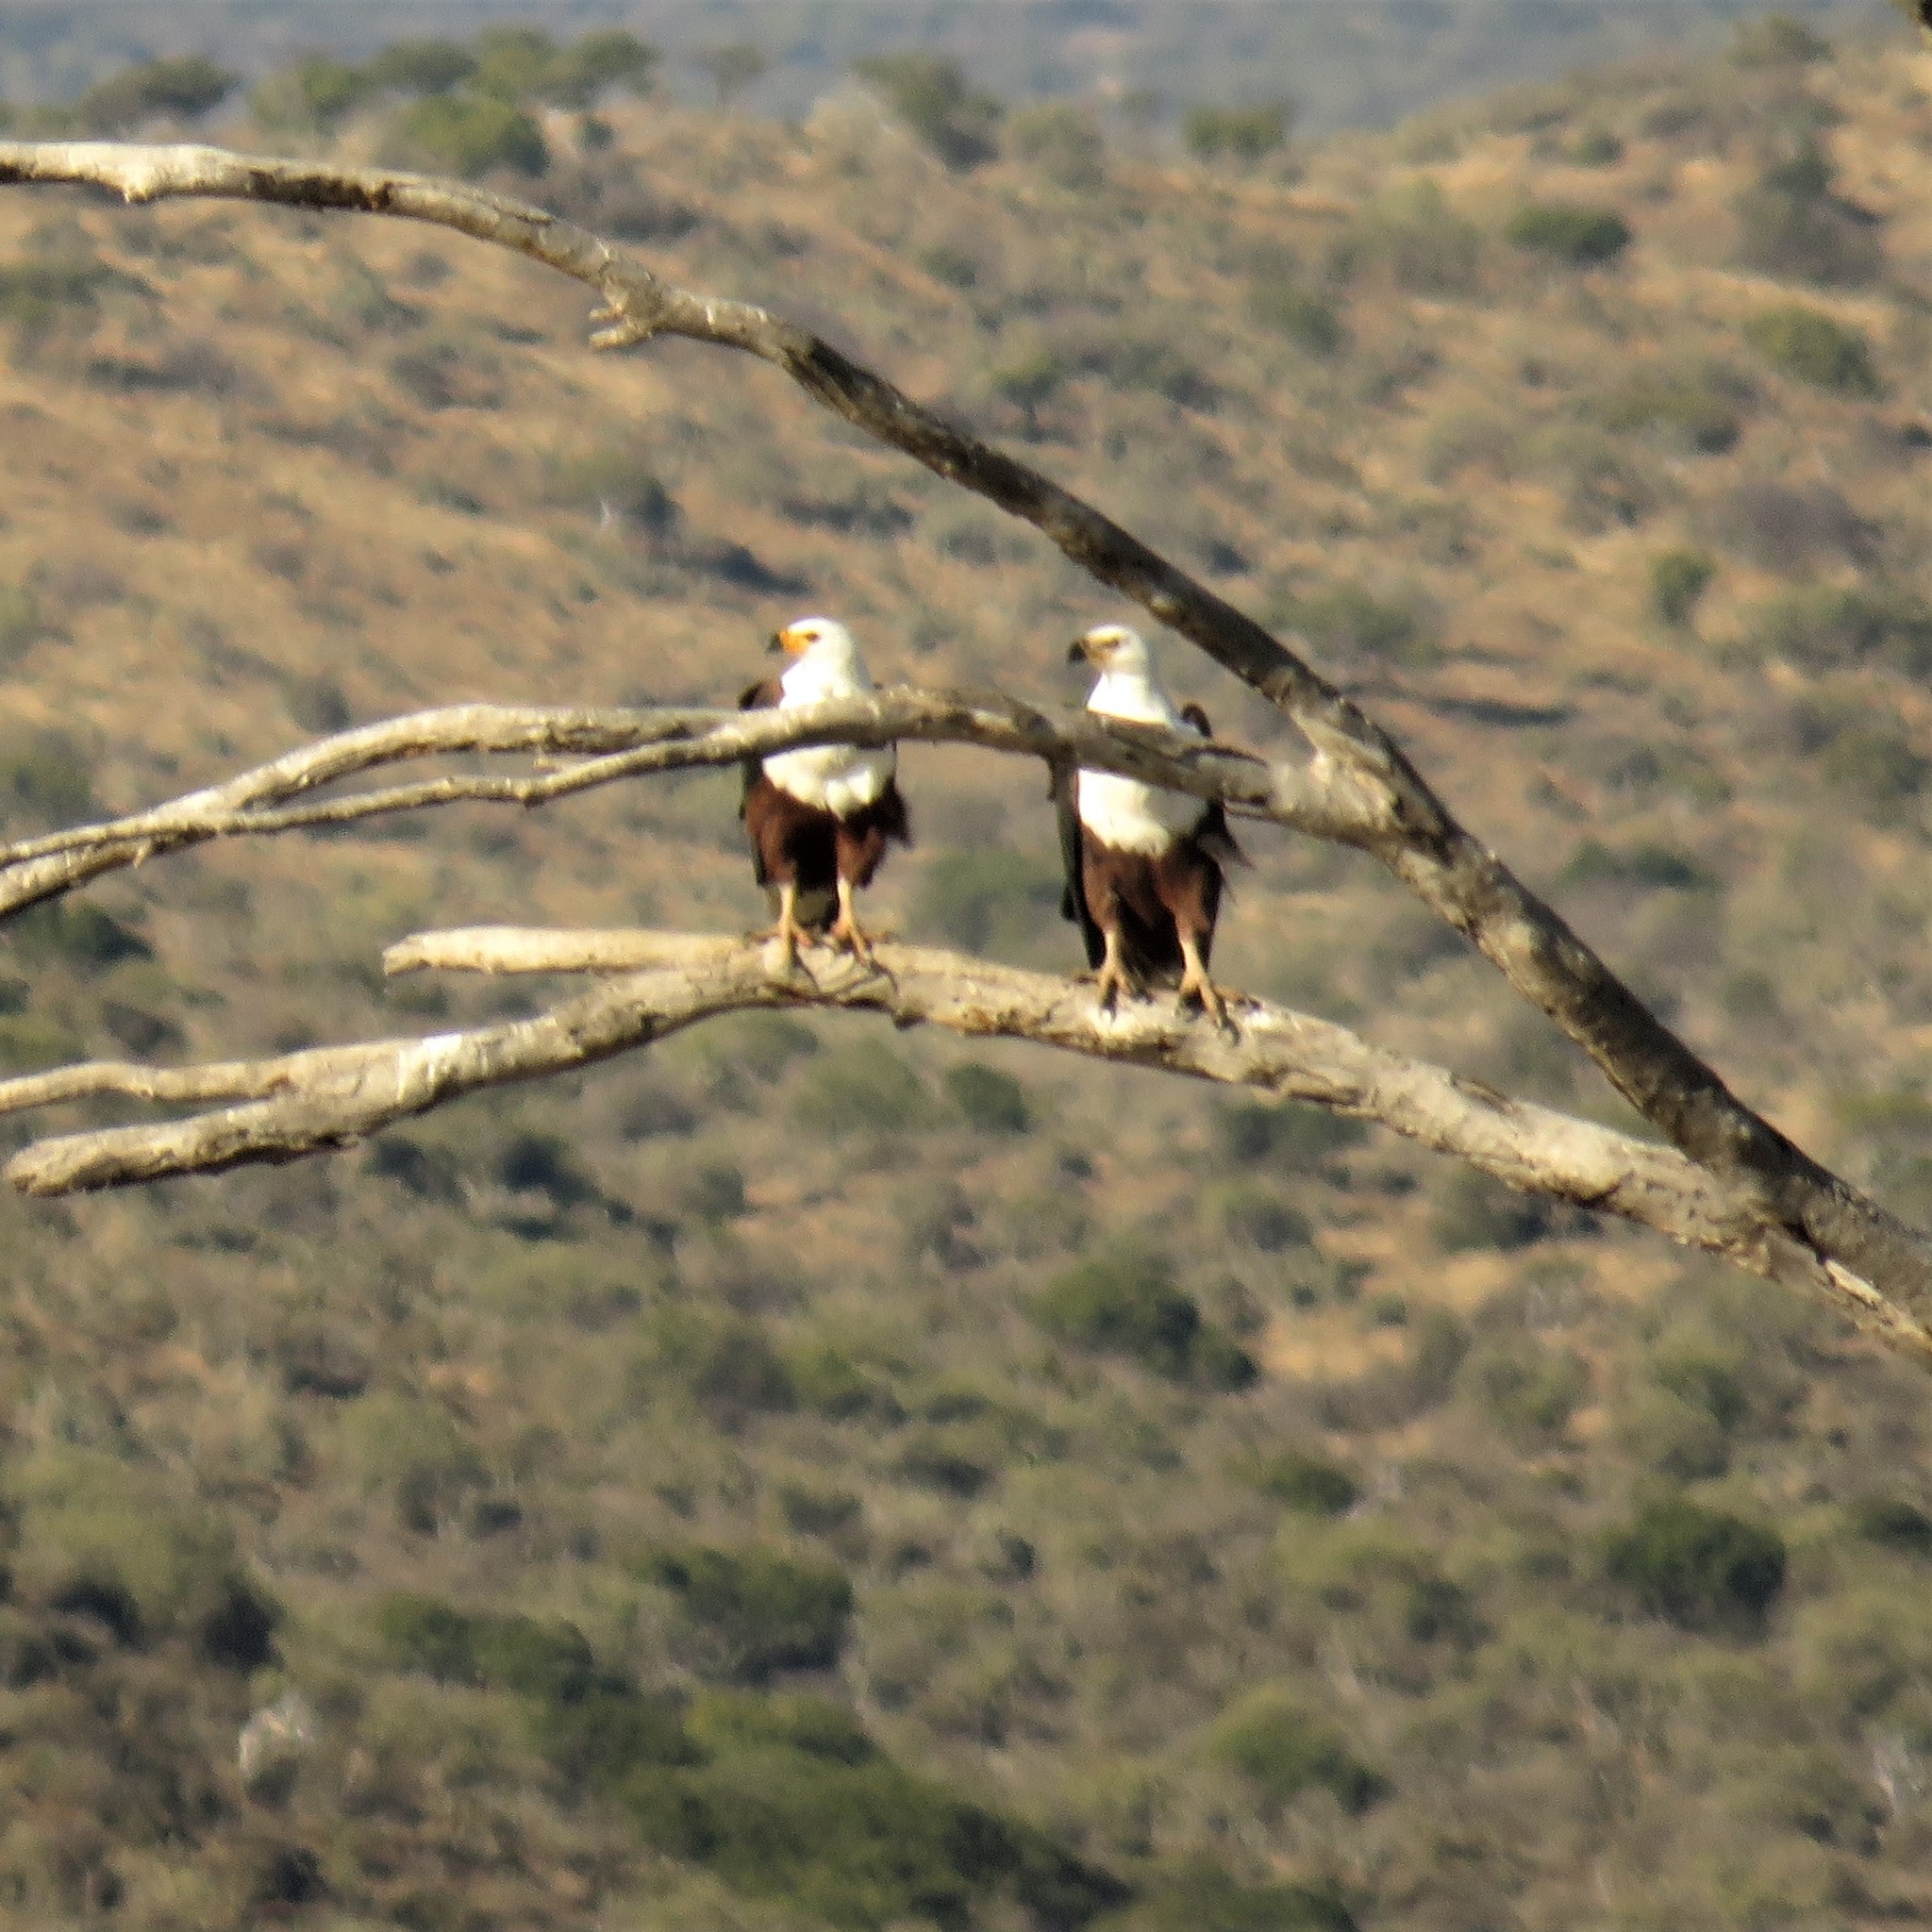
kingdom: Animalia
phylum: Chordata
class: Aves
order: Accipitriformes
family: Accipitridae
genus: Haliaeetus
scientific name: Haliaeetus vocifer
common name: African fish eagle
